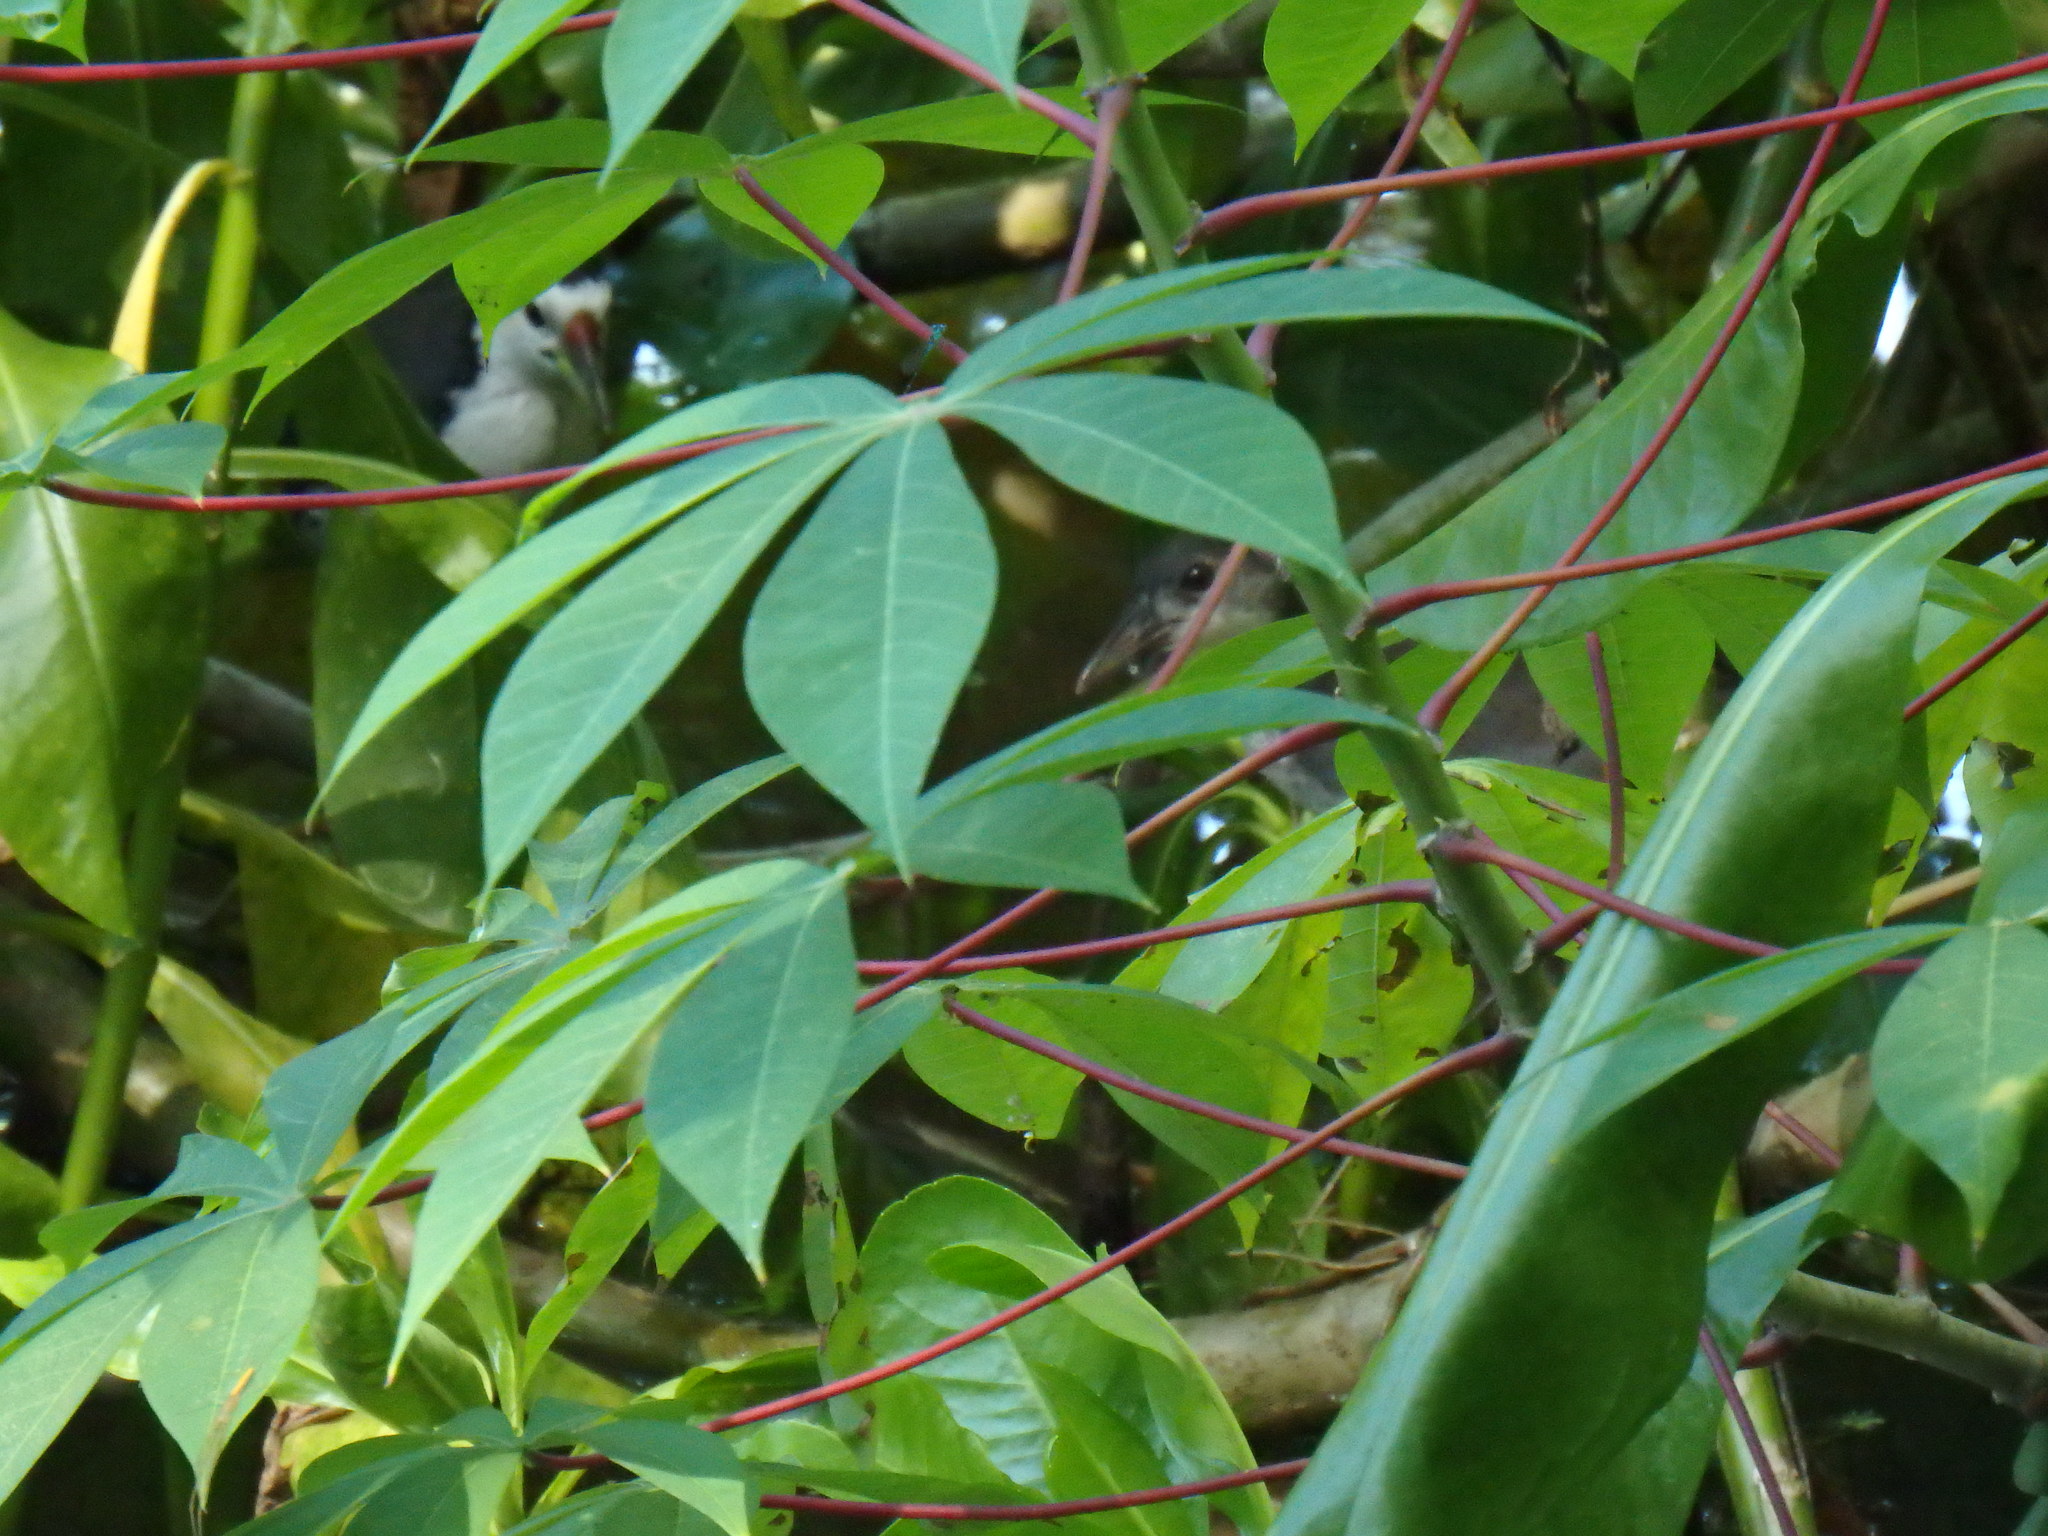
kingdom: Animalia
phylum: Chordata
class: Aves
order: Gruiformes
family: Rallidae
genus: Amaurornis
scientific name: Amaurornis phoenicurus
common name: White-breasted waterhen
